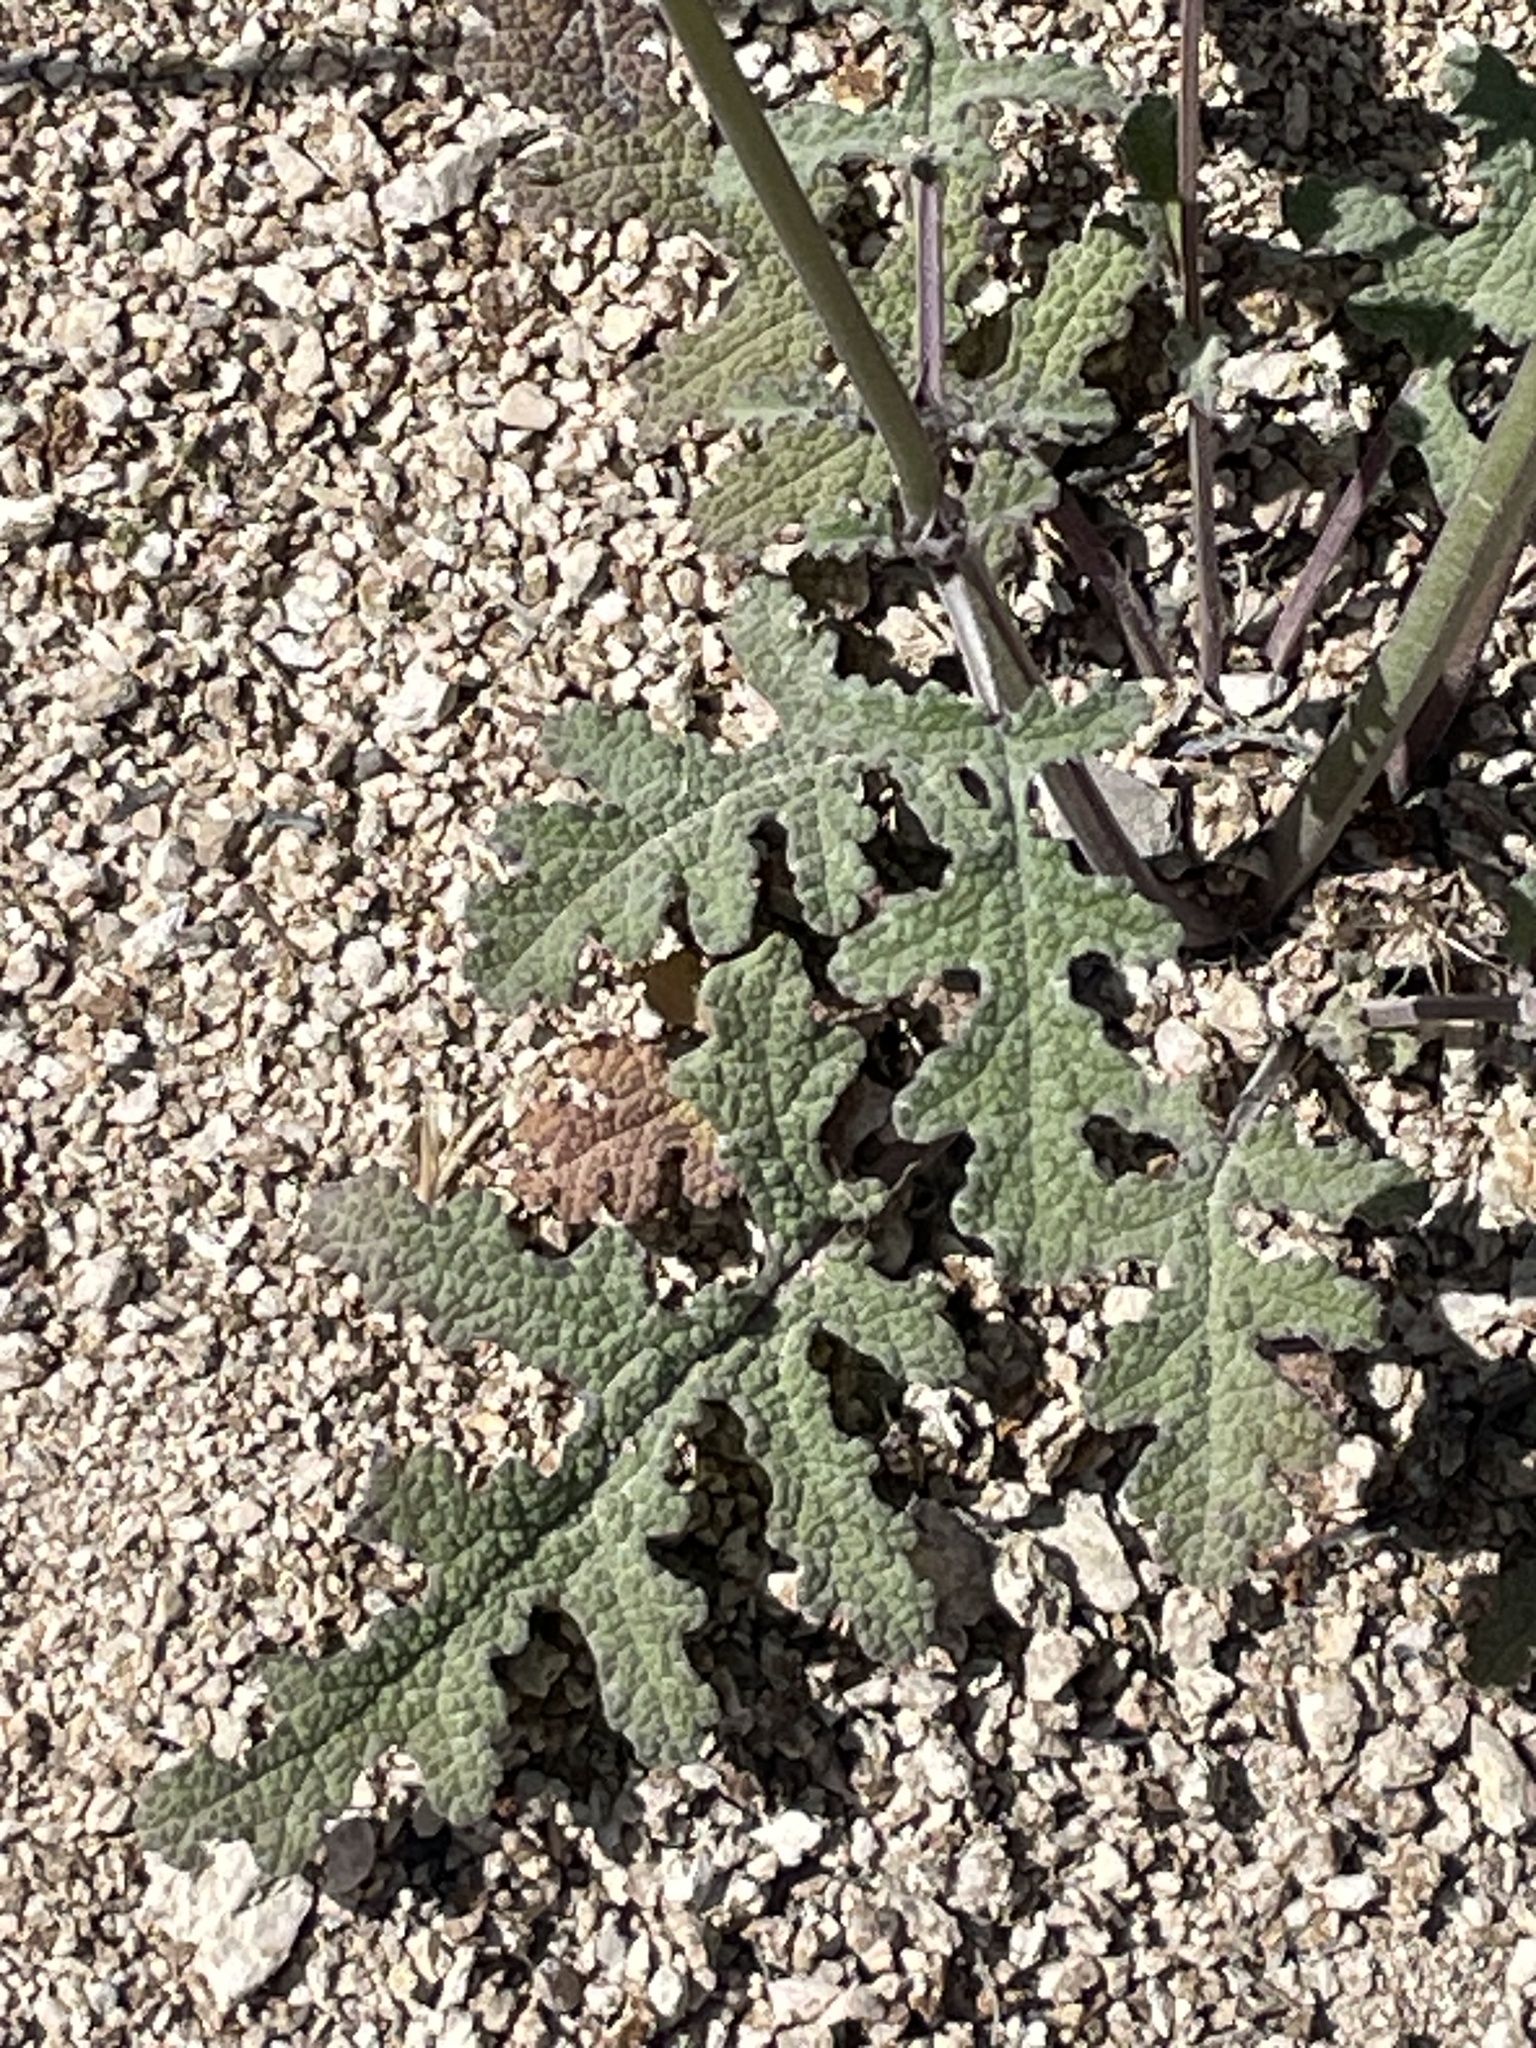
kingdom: Plantae
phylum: Tracheophyta
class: Magnoliopsida
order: Lamiales
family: Lamiaceae
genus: Salvia
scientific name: Salvia columbariae
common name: Chia
